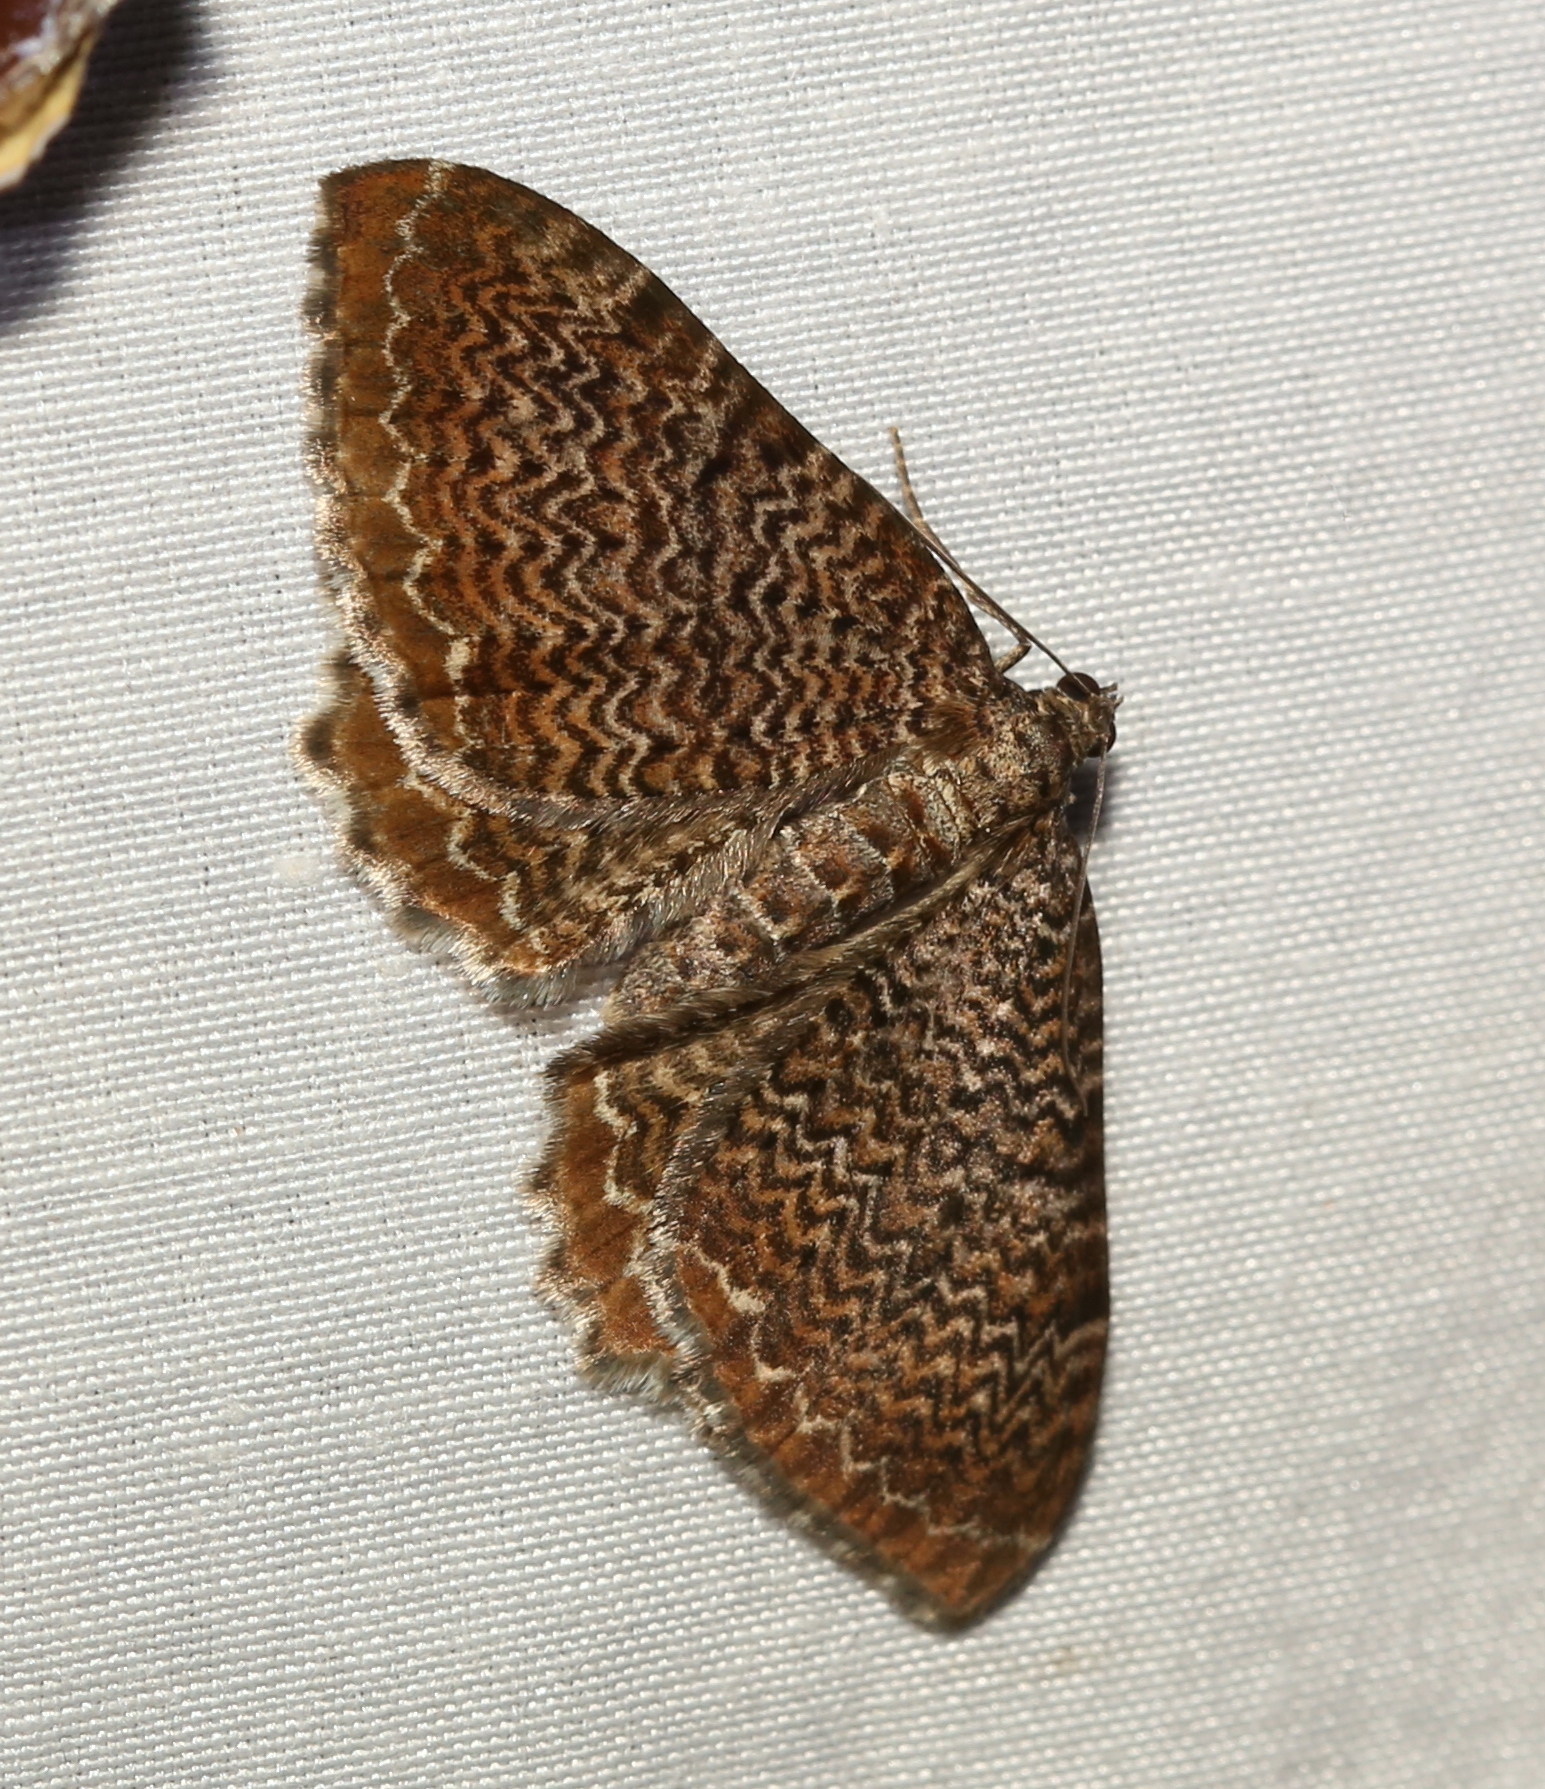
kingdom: Animalia
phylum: Arthropoda
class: Insecta
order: Lepidoptera
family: Geometridae
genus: Rheumaptera
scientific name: Rheumaptera
